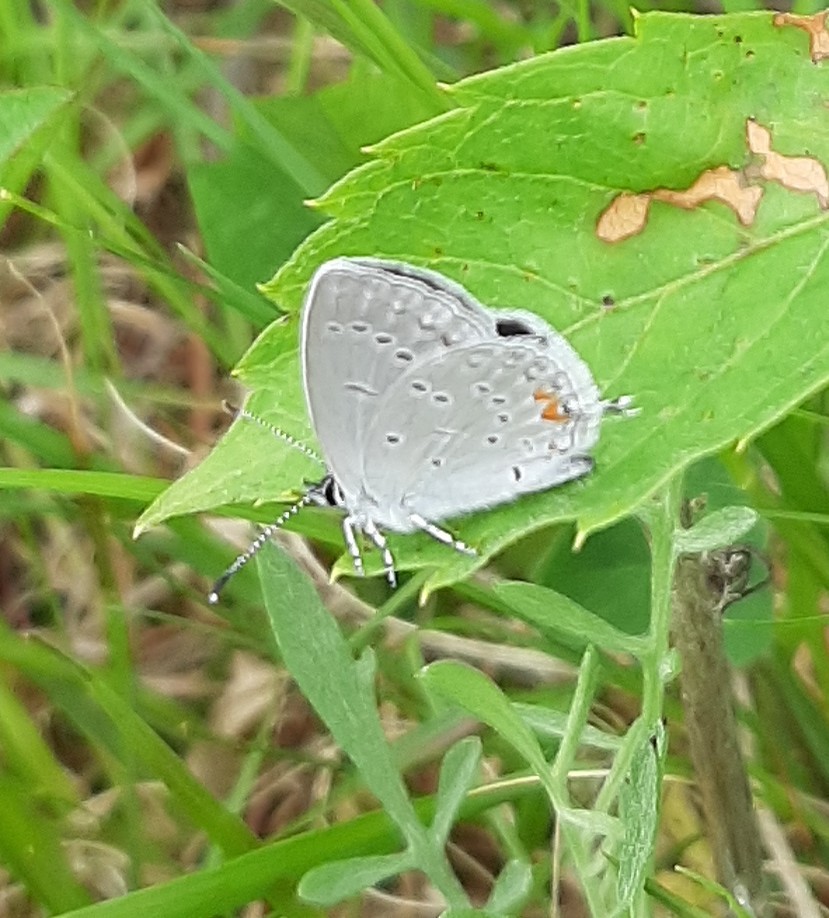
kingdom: Animalia
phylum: Arthropoda
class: Insecta
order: Lepidoptera
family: Lycaenidae
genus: Elkalyce
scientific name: Elkalyce comyntas
